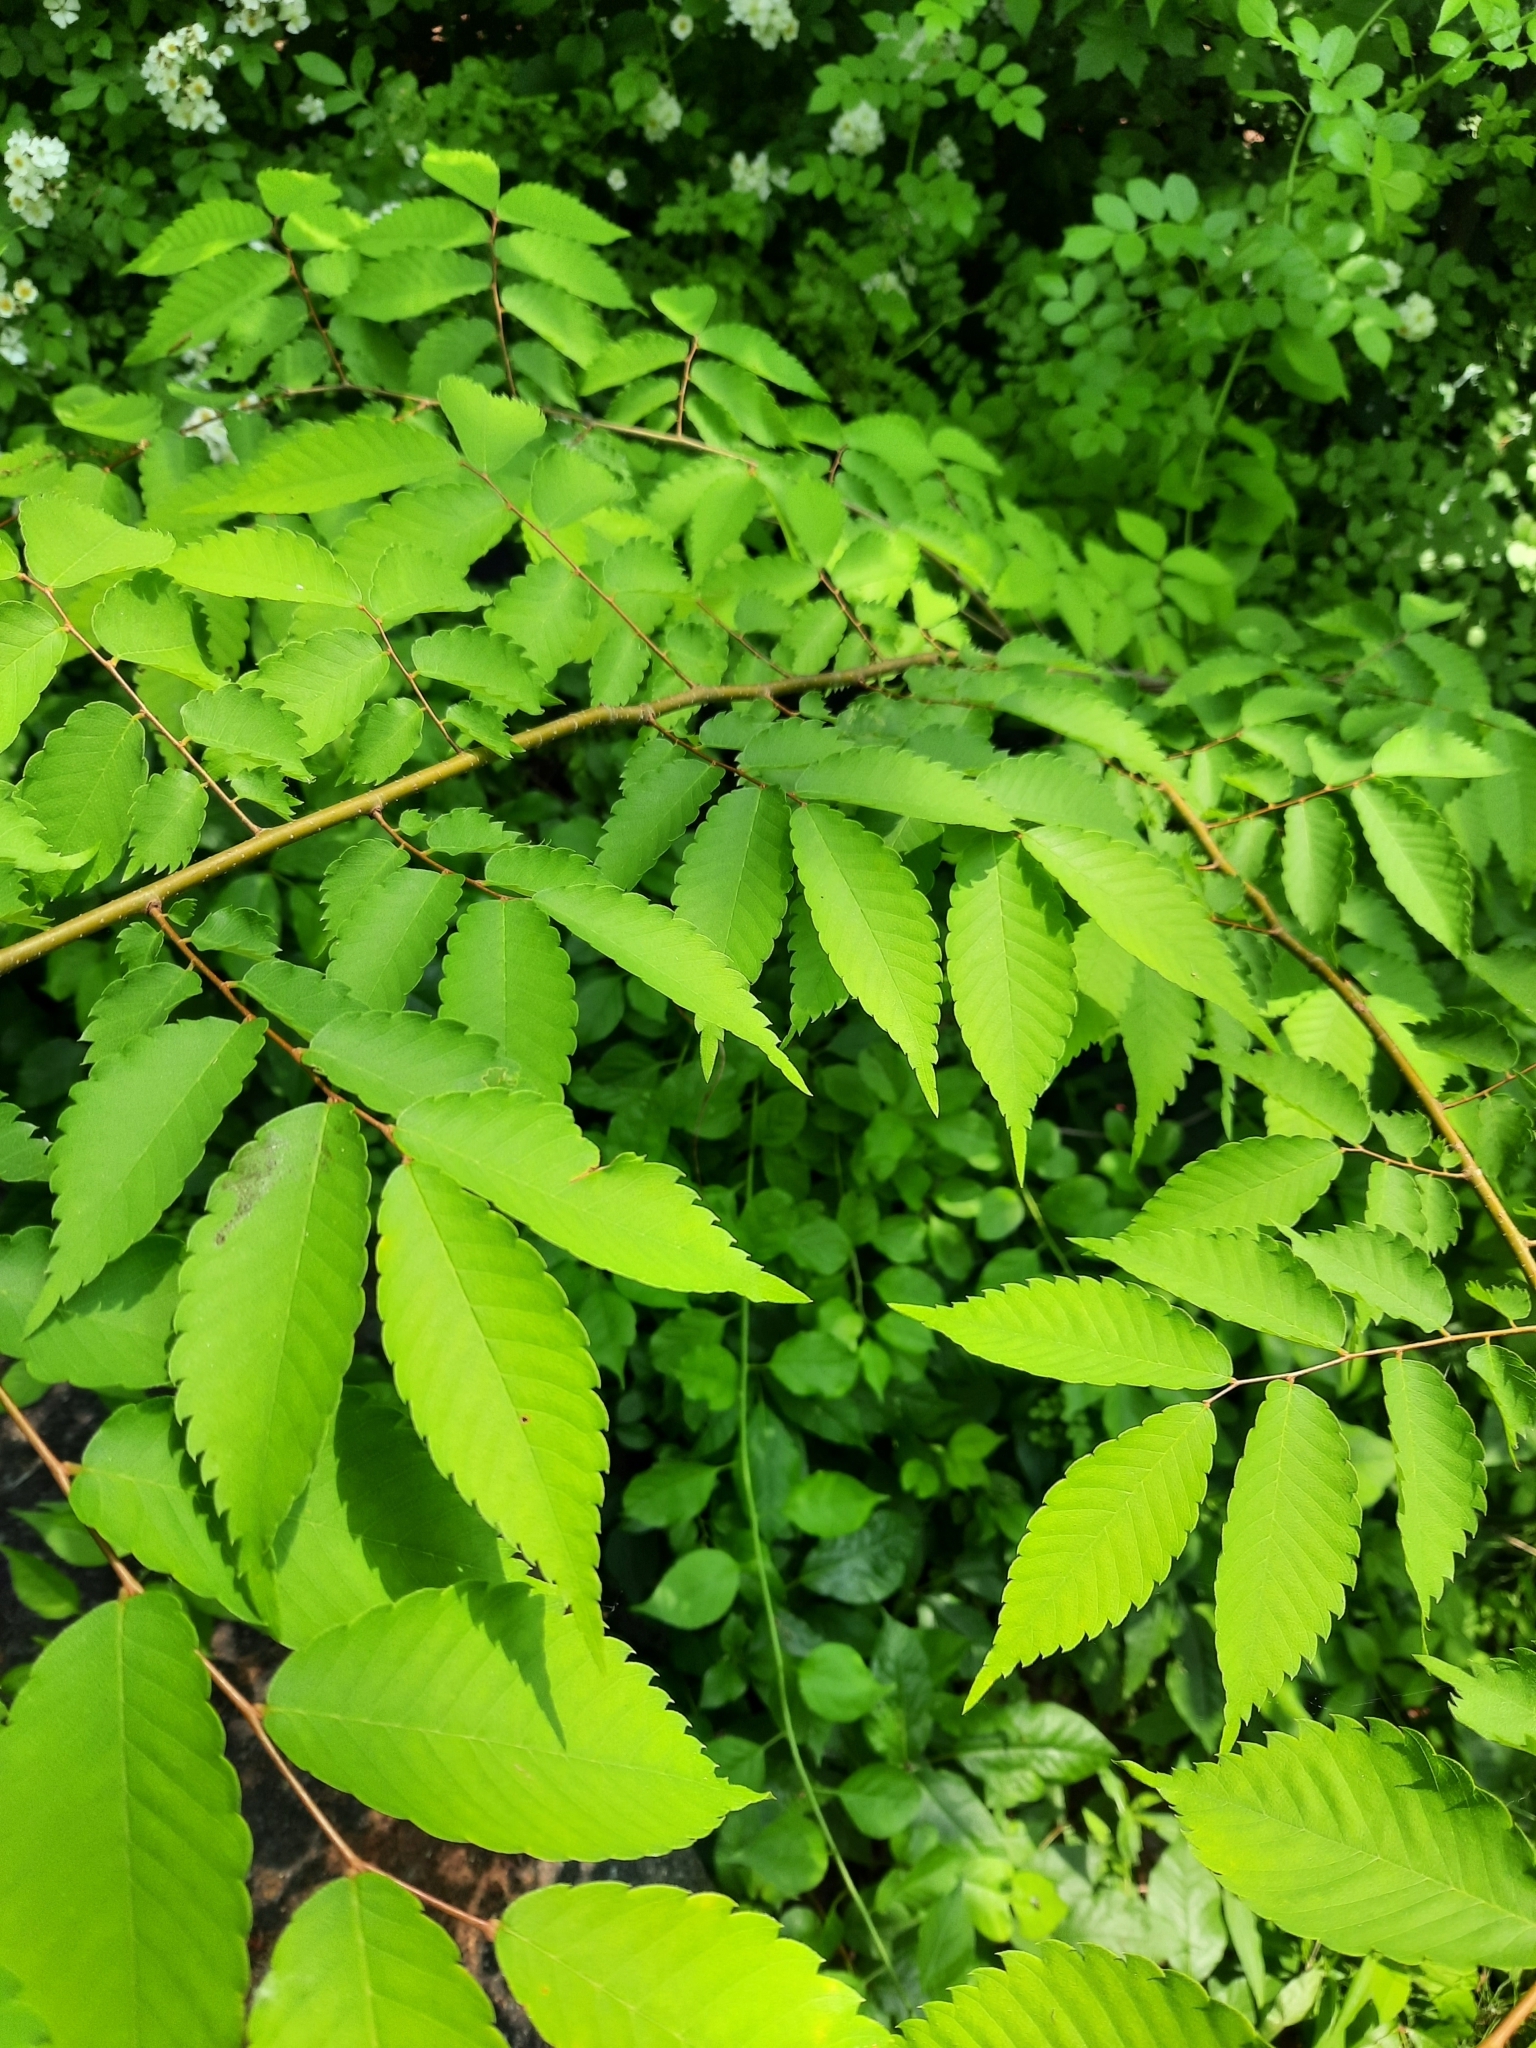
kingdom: Plantae
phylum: Tracheophyta
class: Magnoliopsida
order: Rosales
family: Ulmaceae
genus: Zelkova
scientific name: Zelkova serrata
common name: Japanese zelkova
